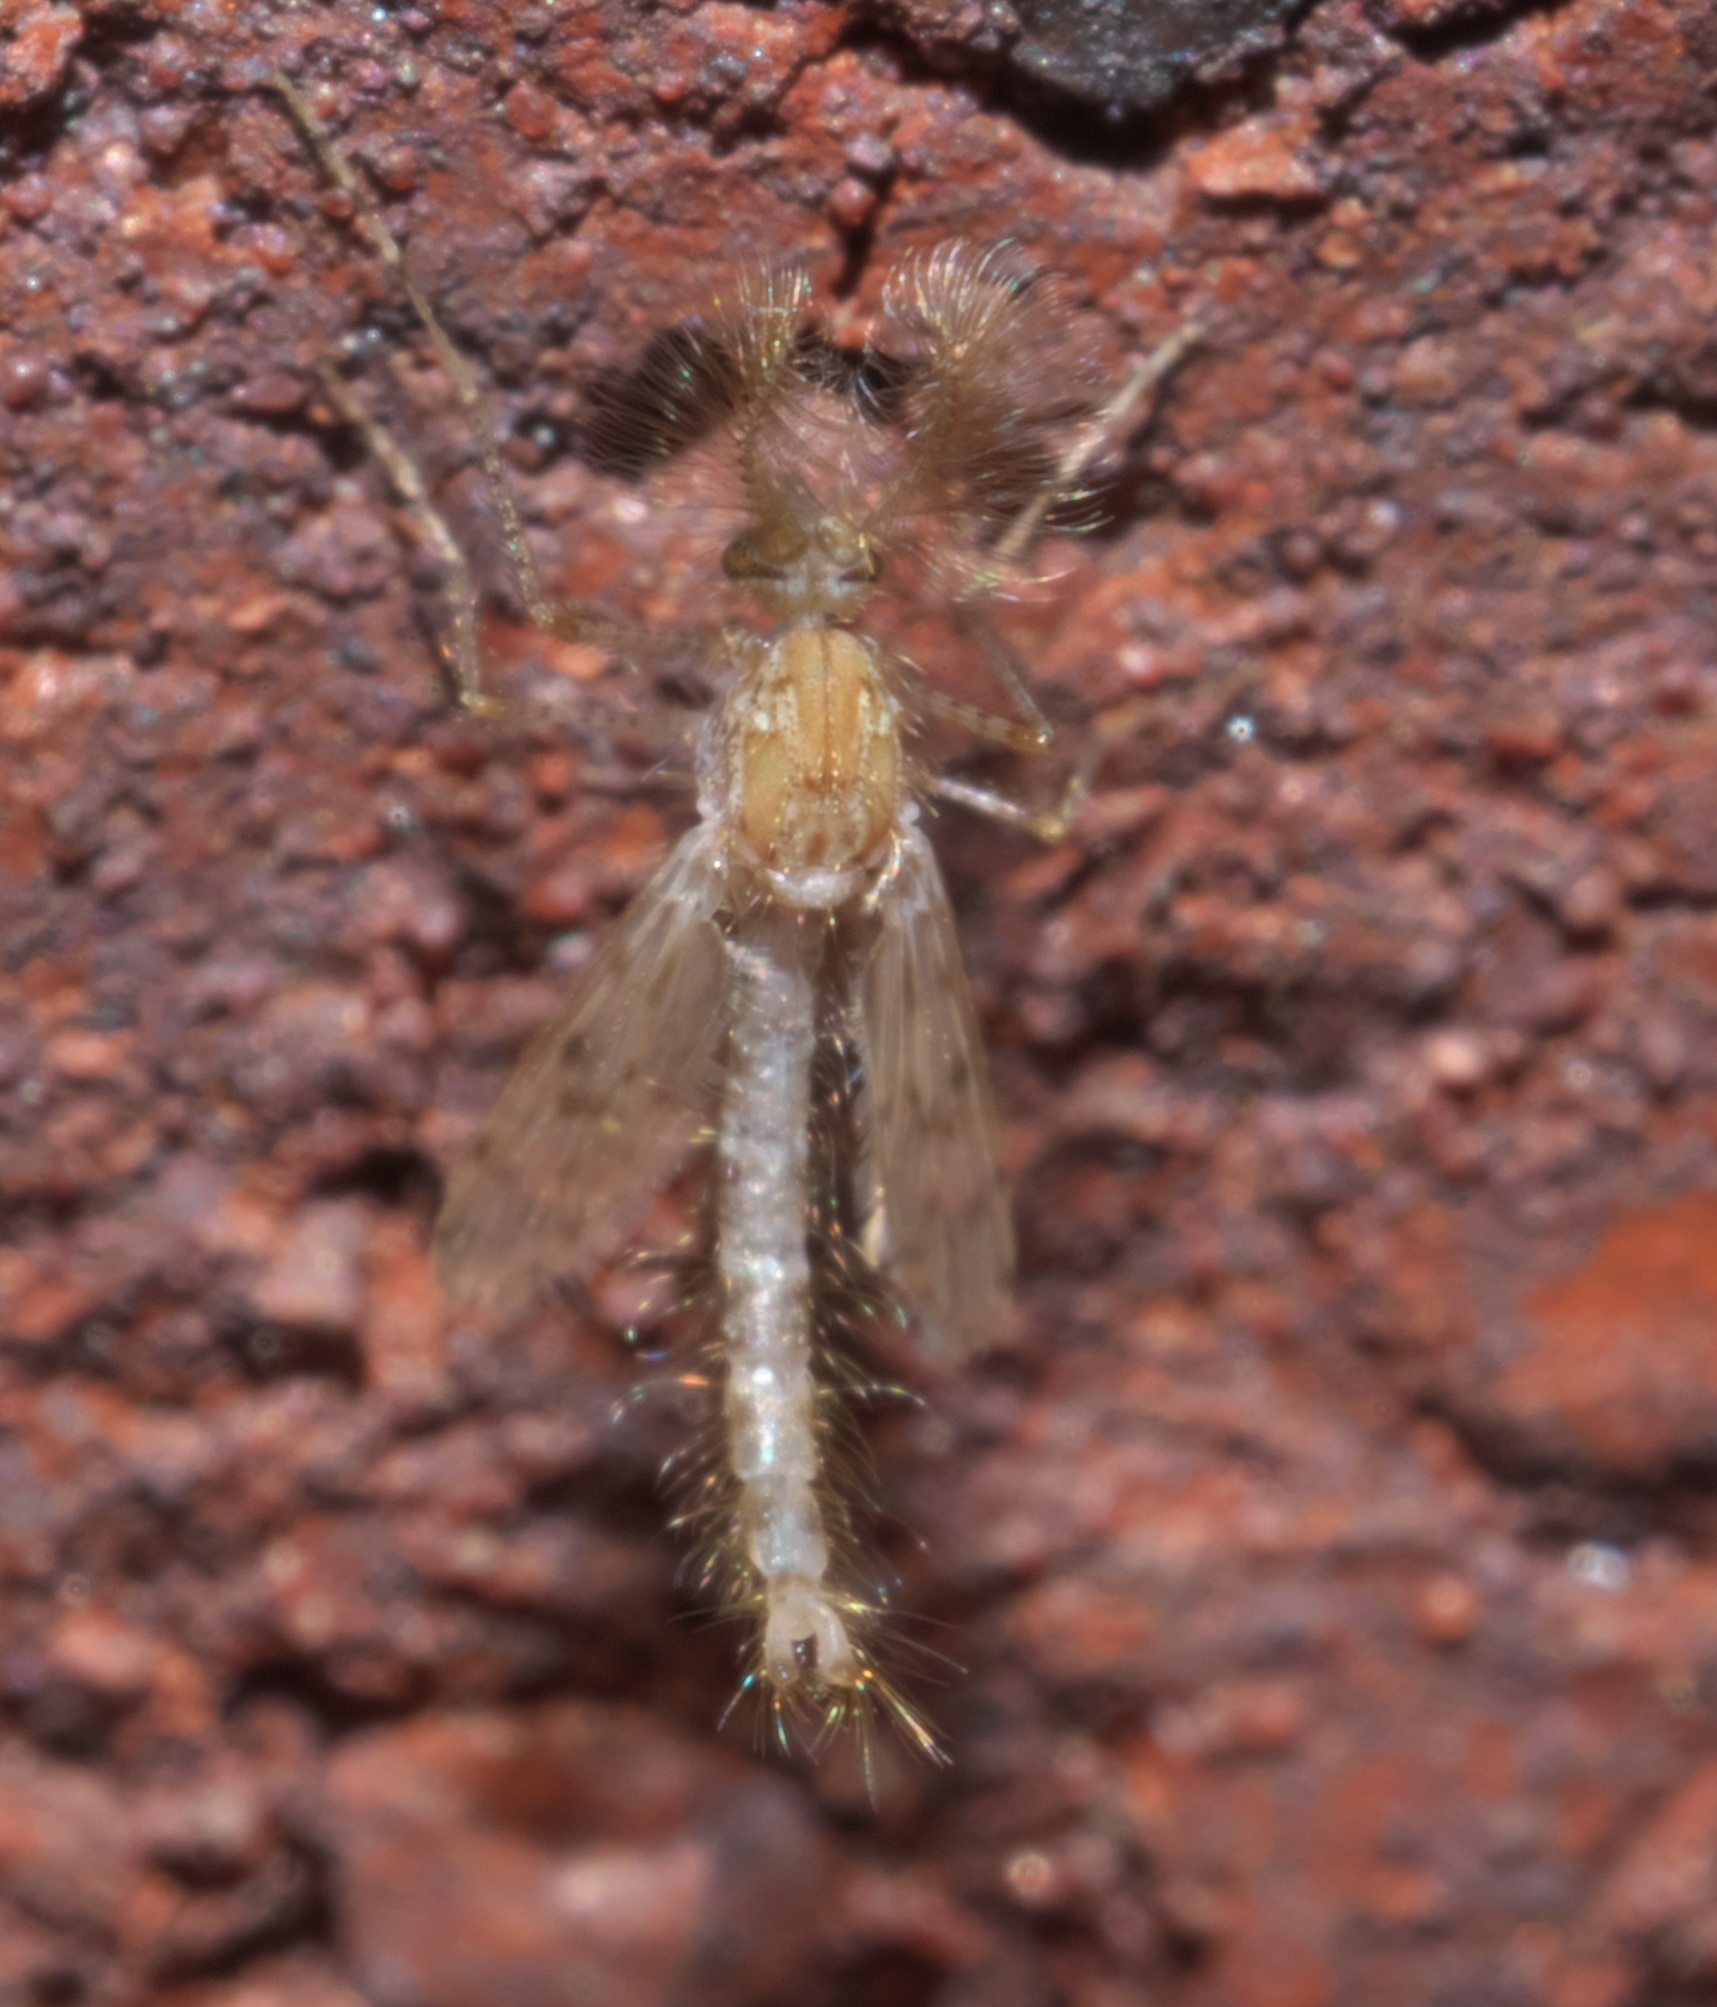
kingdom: Animalia
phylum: Arthropoda
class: Insecta
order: Diptera
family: Chaoboridae
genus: Chaoborus
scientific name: Chaoborus punctipennis
